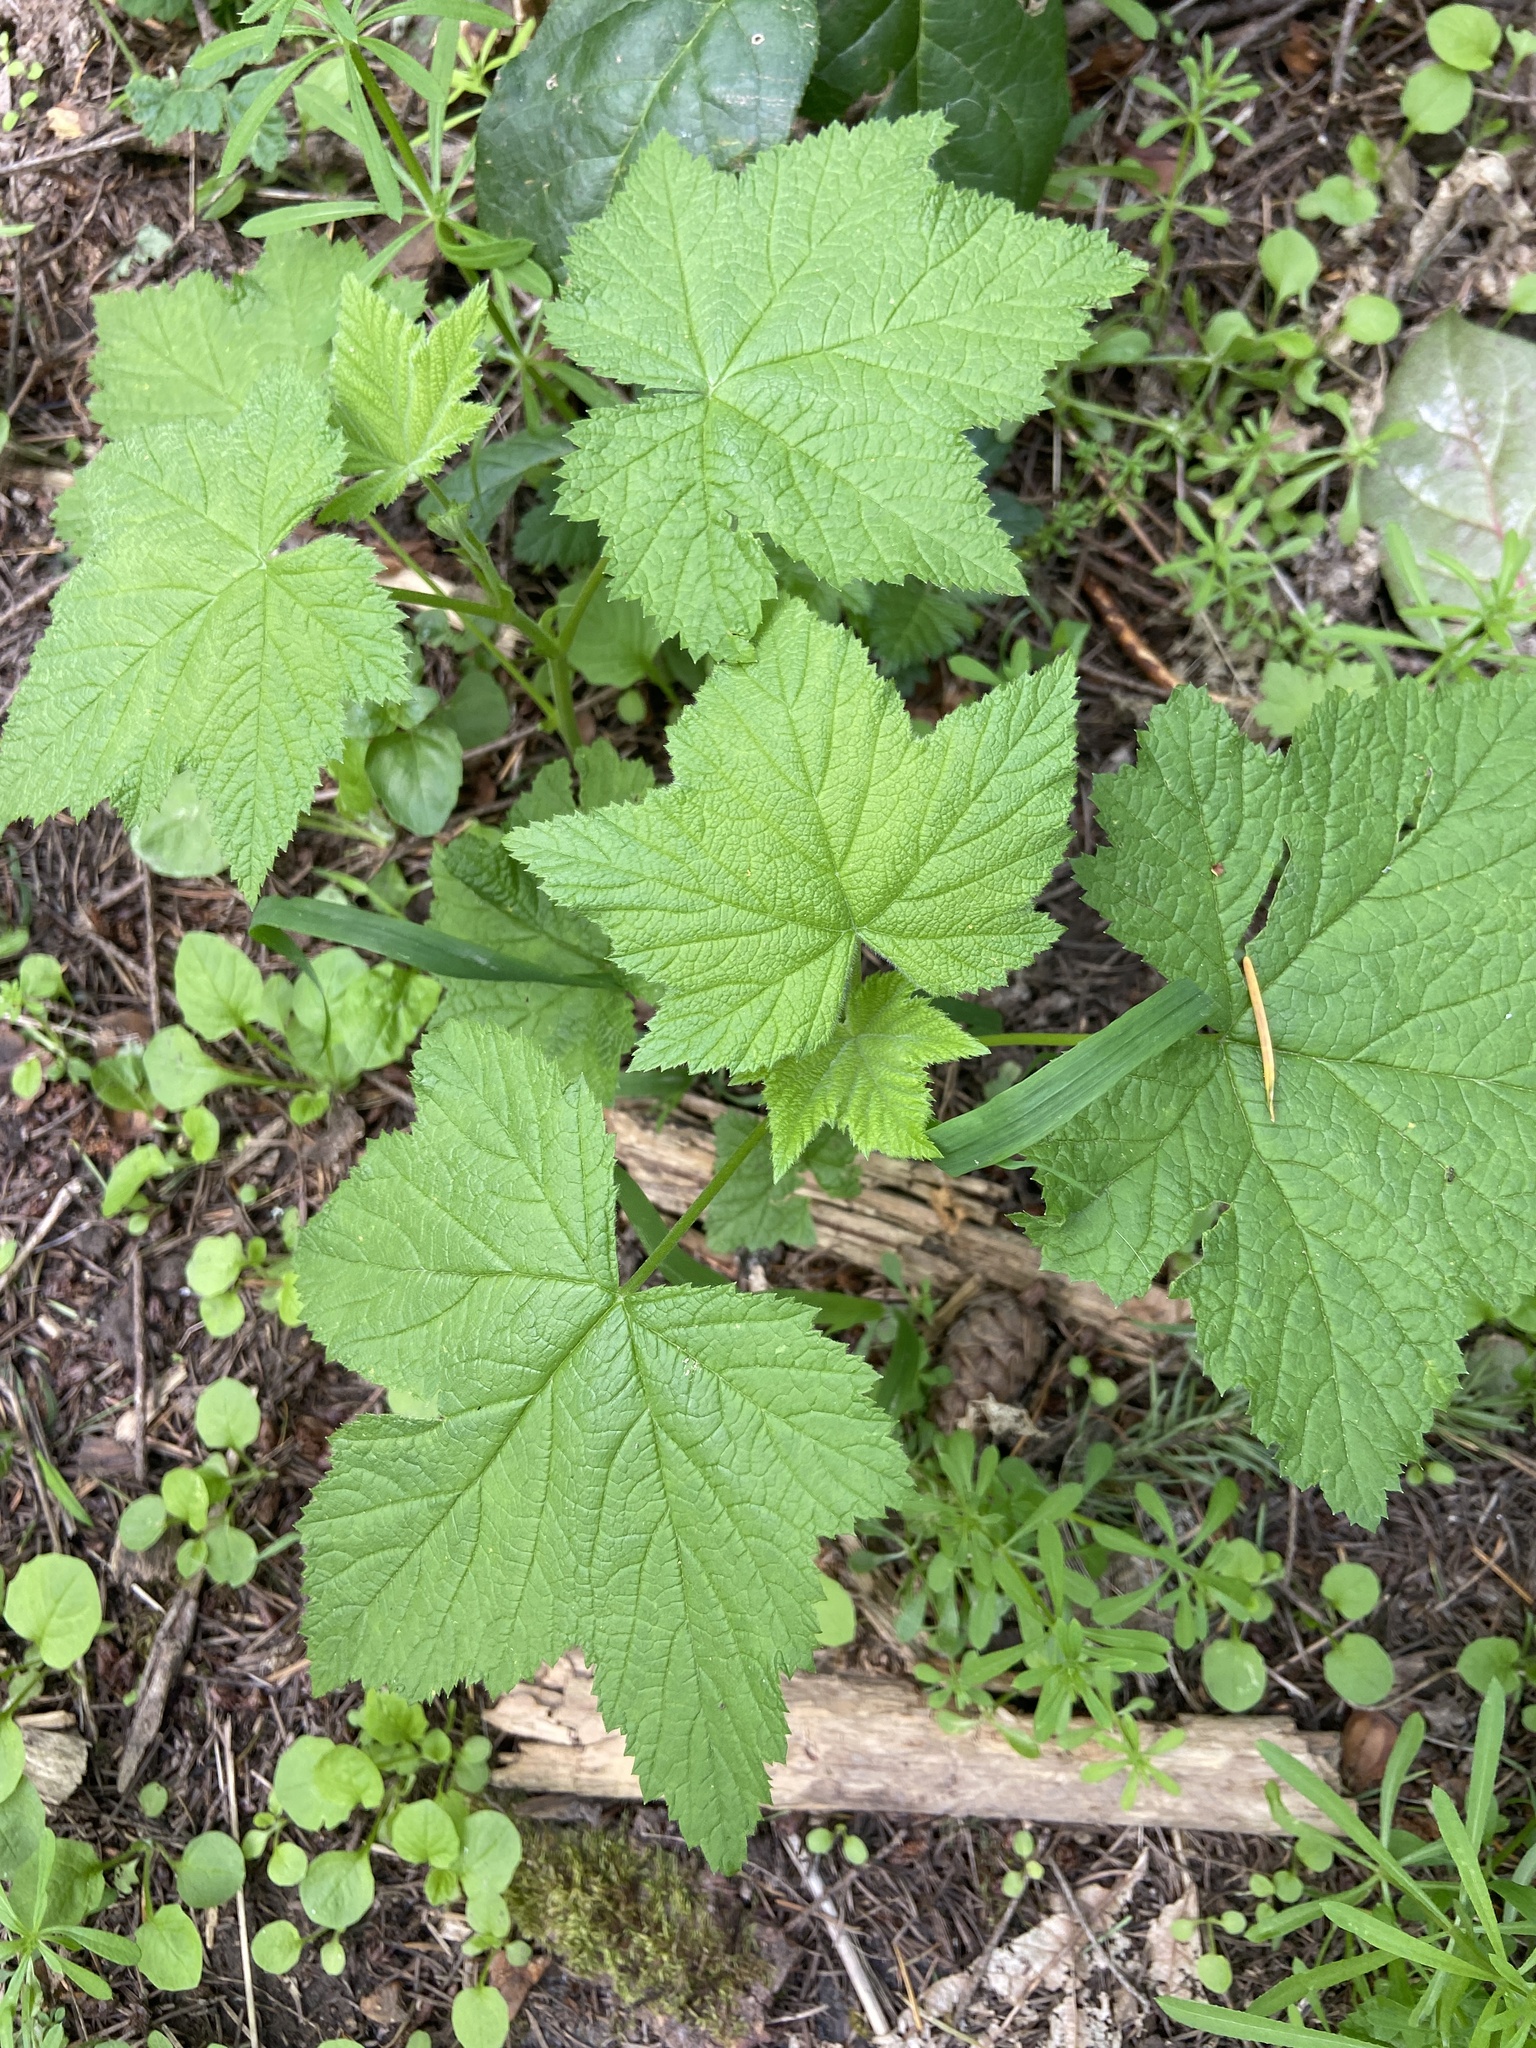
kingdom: Plantae
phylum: Tracheophyta
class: Magnoliopsida
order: Rosales
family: Rosaceae
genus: Rubus
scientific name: Rubus parviflorus
